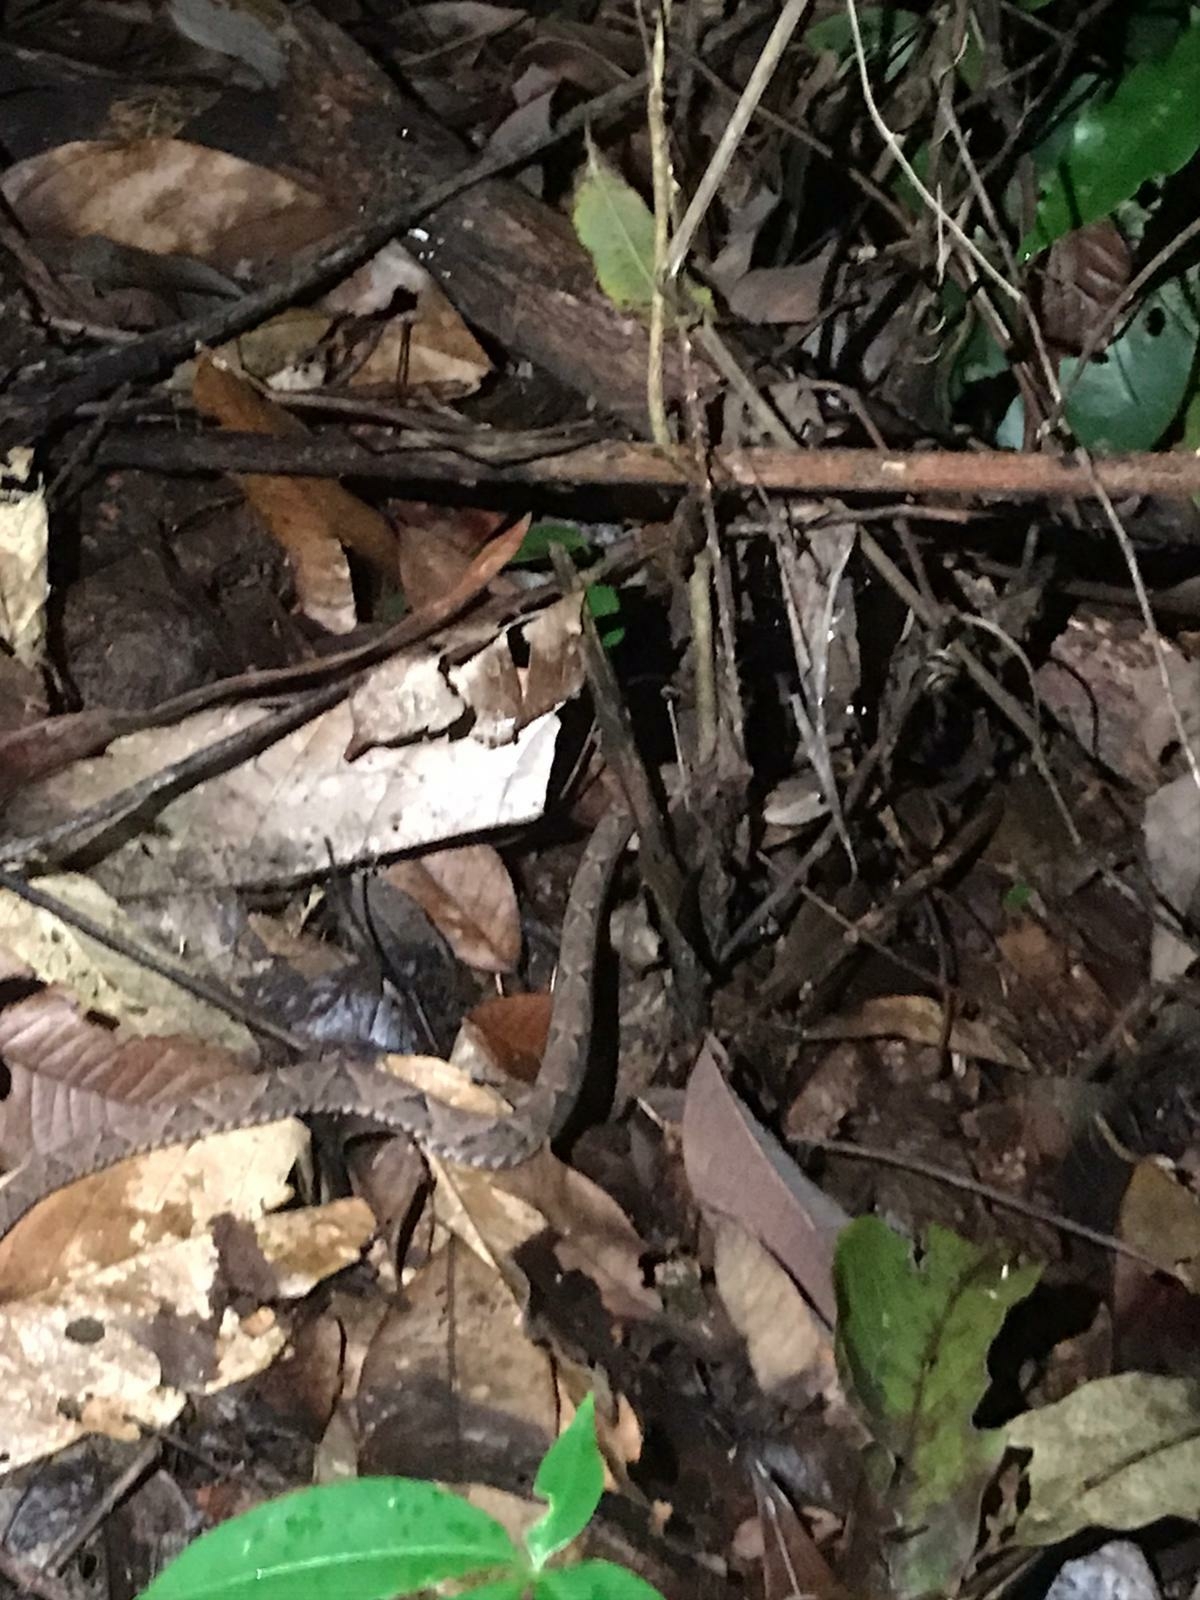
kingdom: Animalia
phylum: Chordata
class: Squamata
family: Viperidae
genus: Bothrops
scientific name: Bothrops asper
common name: Terciopelo
